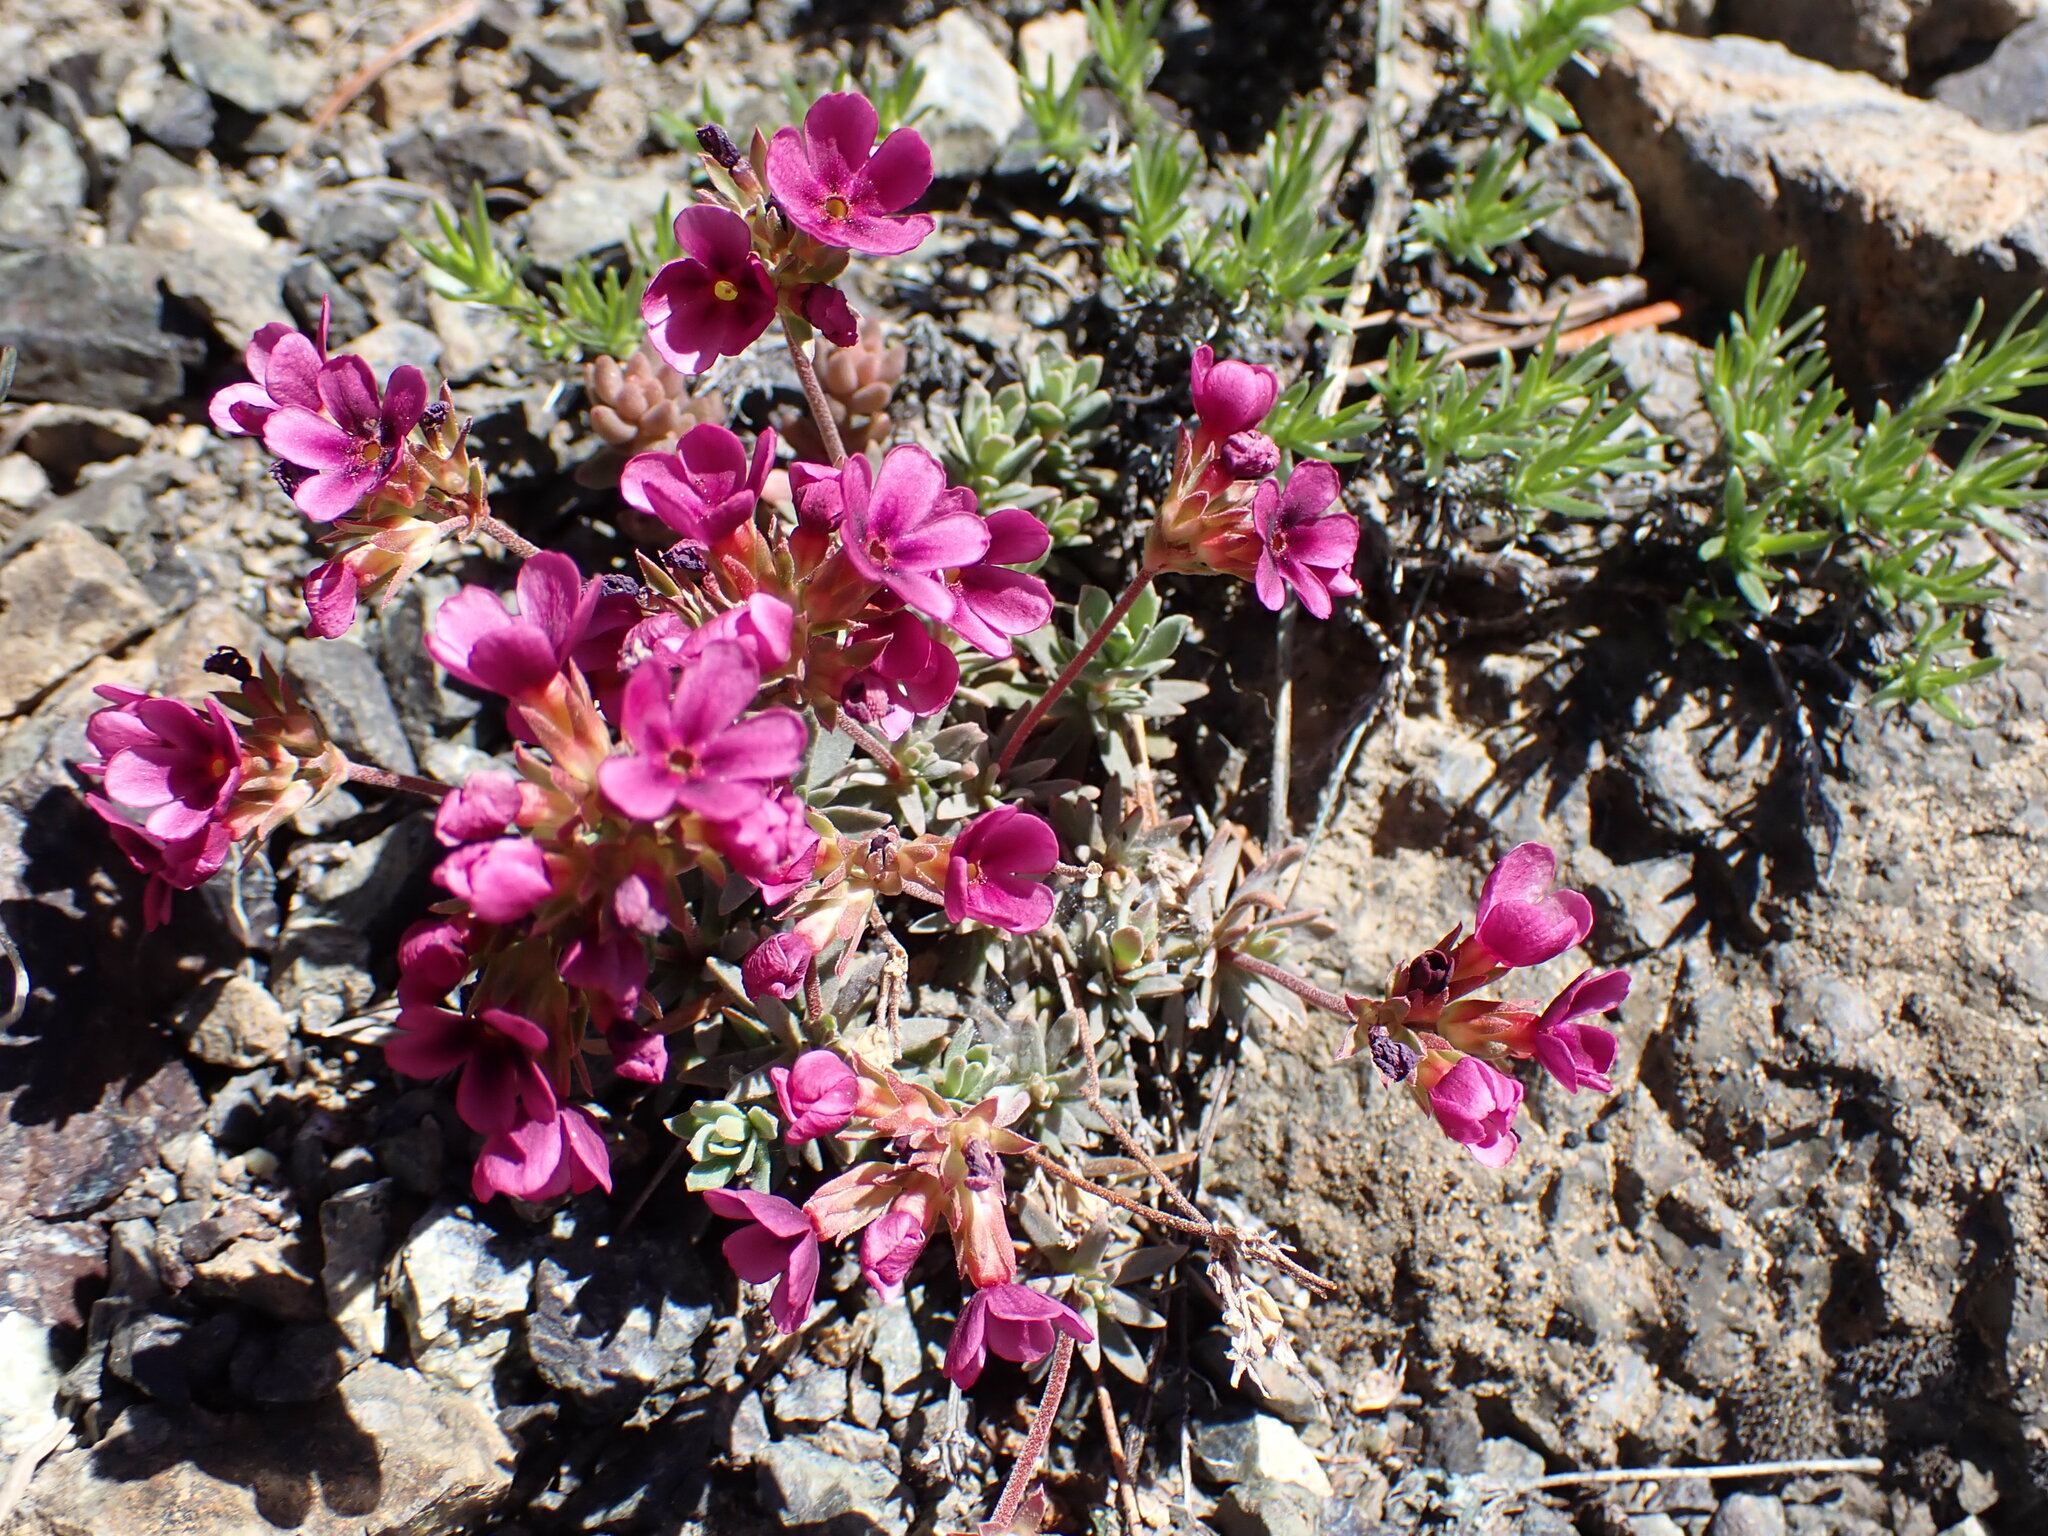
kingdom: Plantae
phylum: Tracheophyta
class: Magnoliopsida
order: Ericales
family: Primulaceae
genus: Androsace
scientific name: Androsace nivalis
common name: Snow dwarf-primrose
